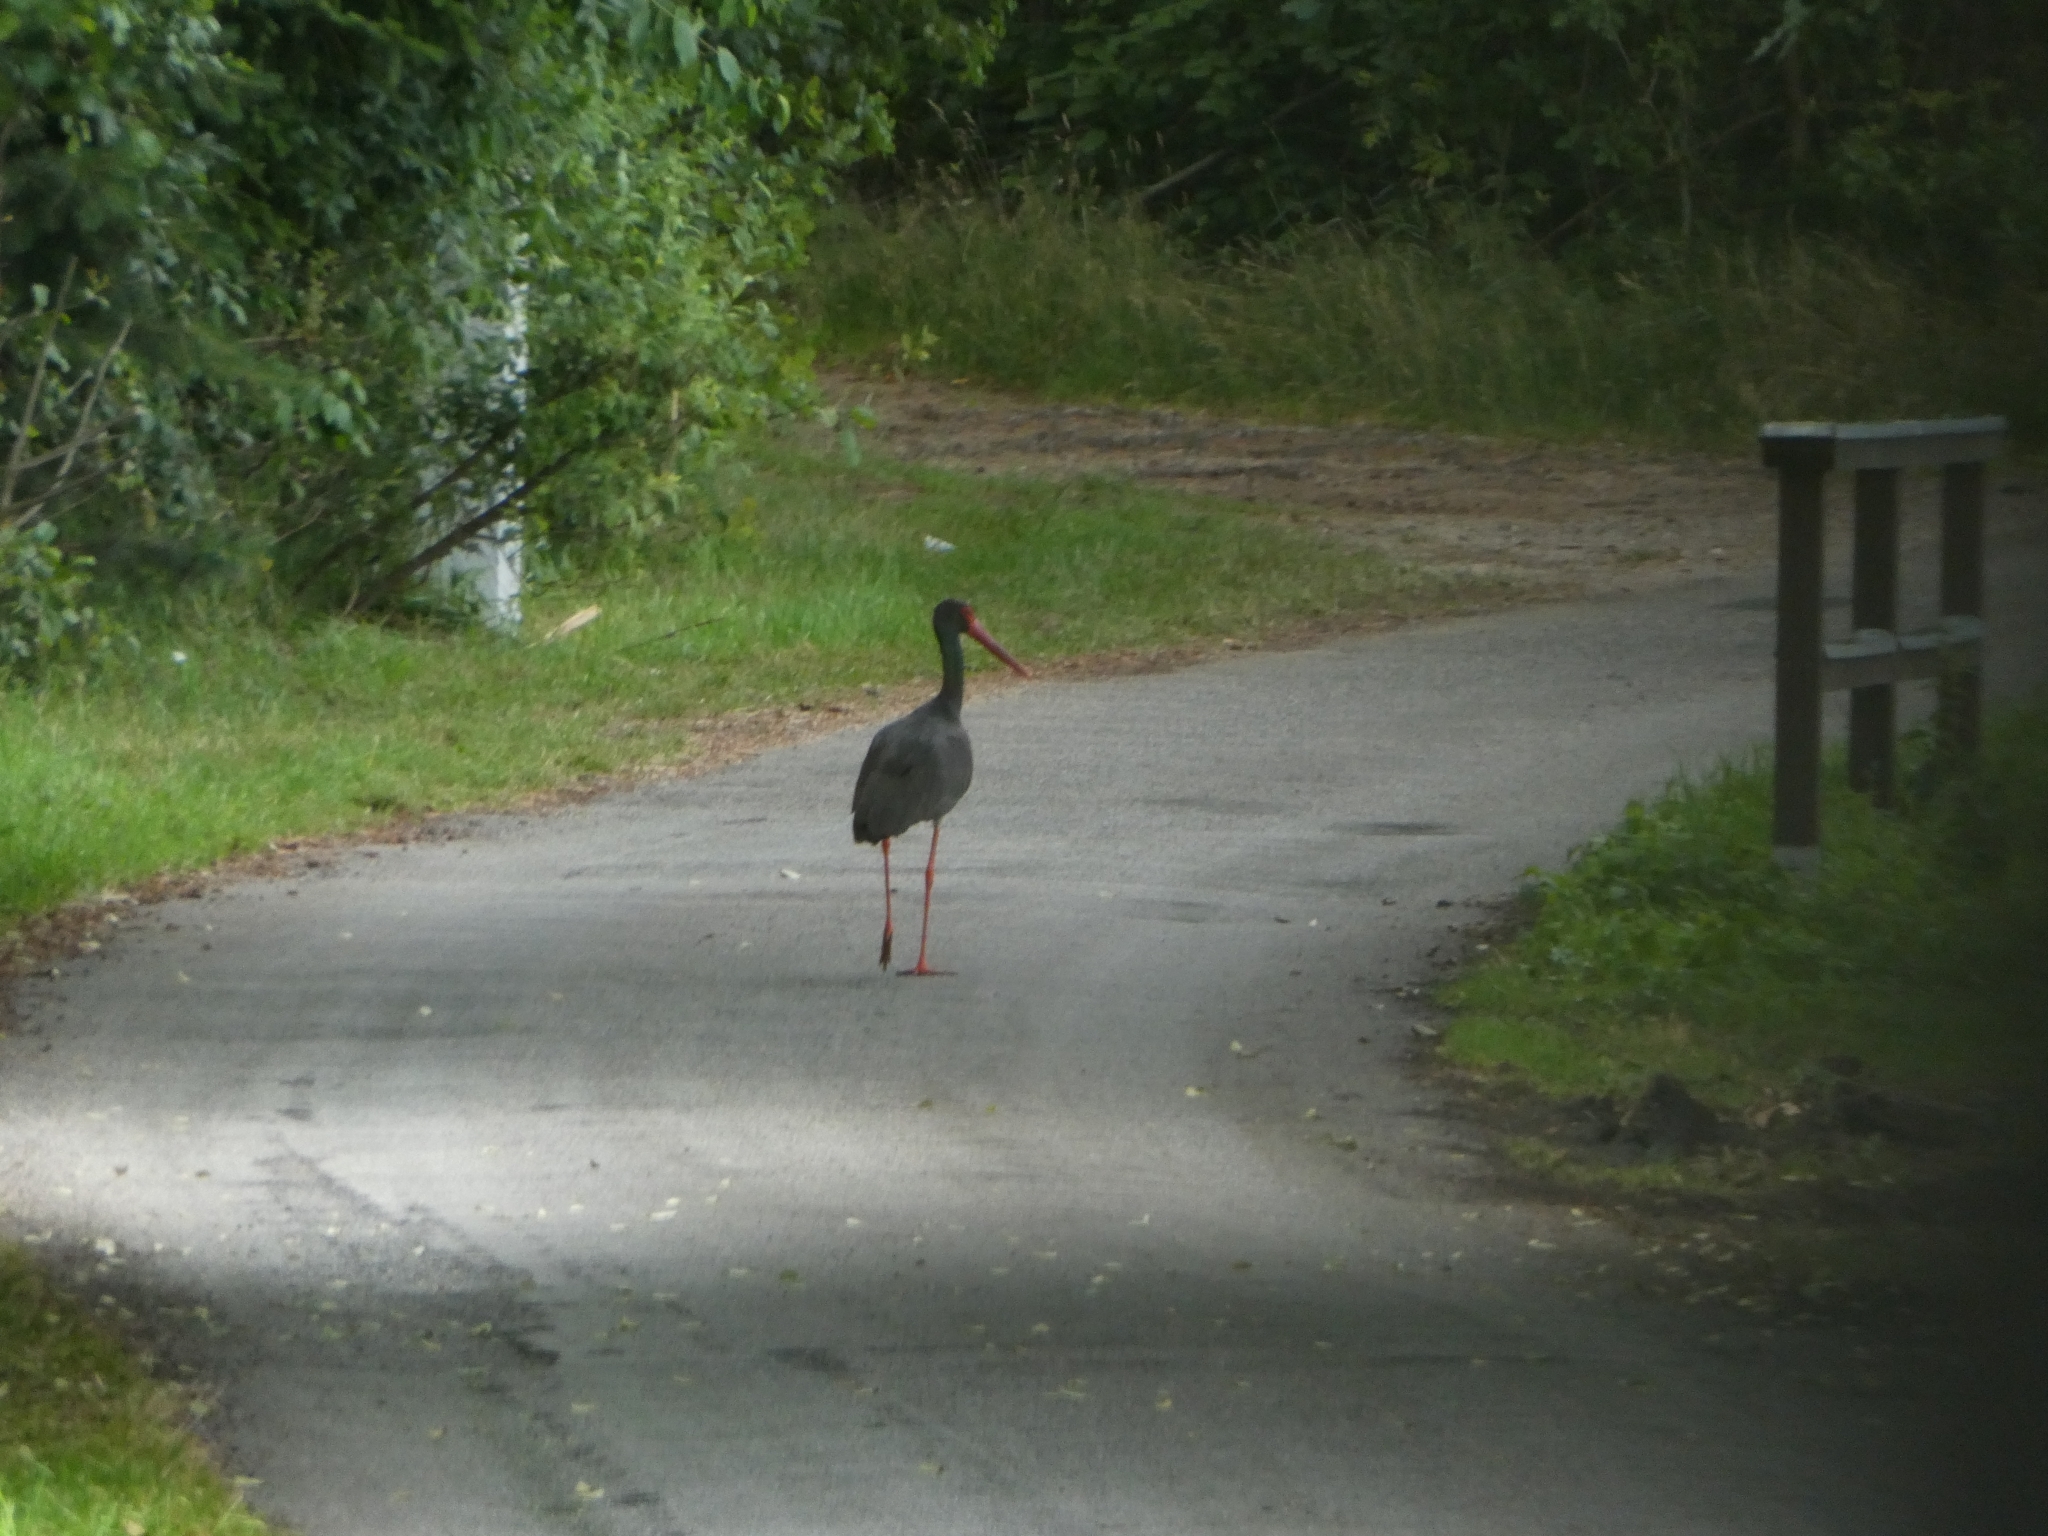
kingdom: Animalia
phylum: Chordata
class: Aves
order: Ciconiiformes
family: Ciconiidae
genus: Ciconia
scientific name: Ciconia nigra
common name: Black stork
